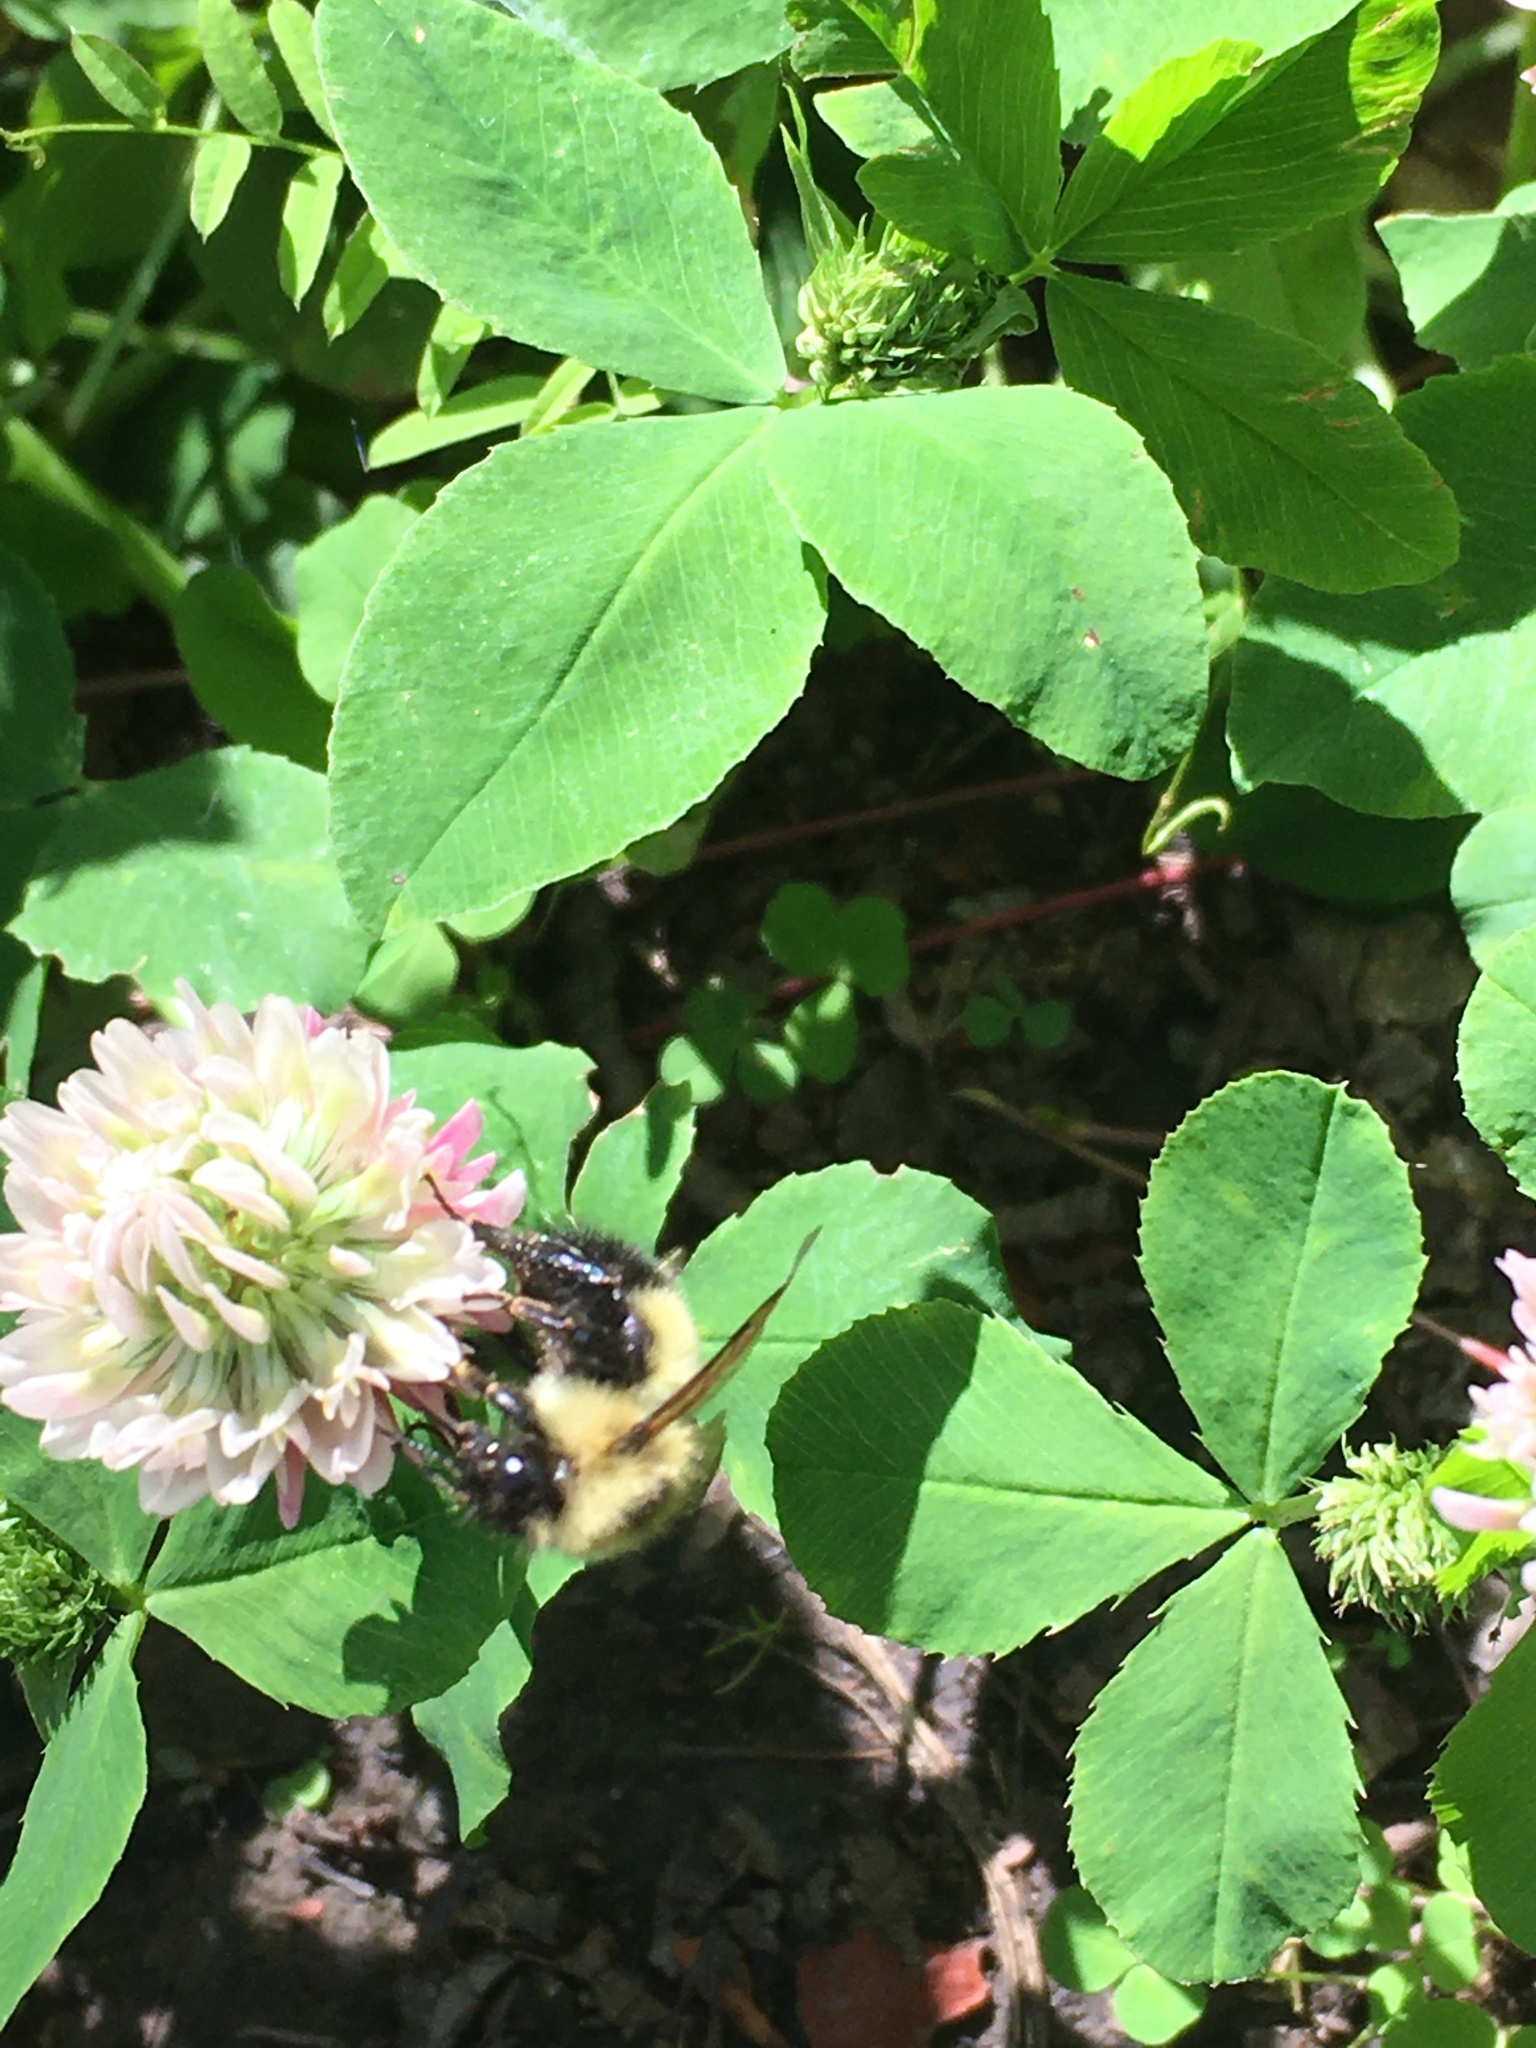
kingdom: Animalia
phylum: Arthropoda
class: Insecta
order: Hymenoptera
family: Apidae
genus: Bombus
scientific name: Bombus vagans
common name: Half-black bumble bee
